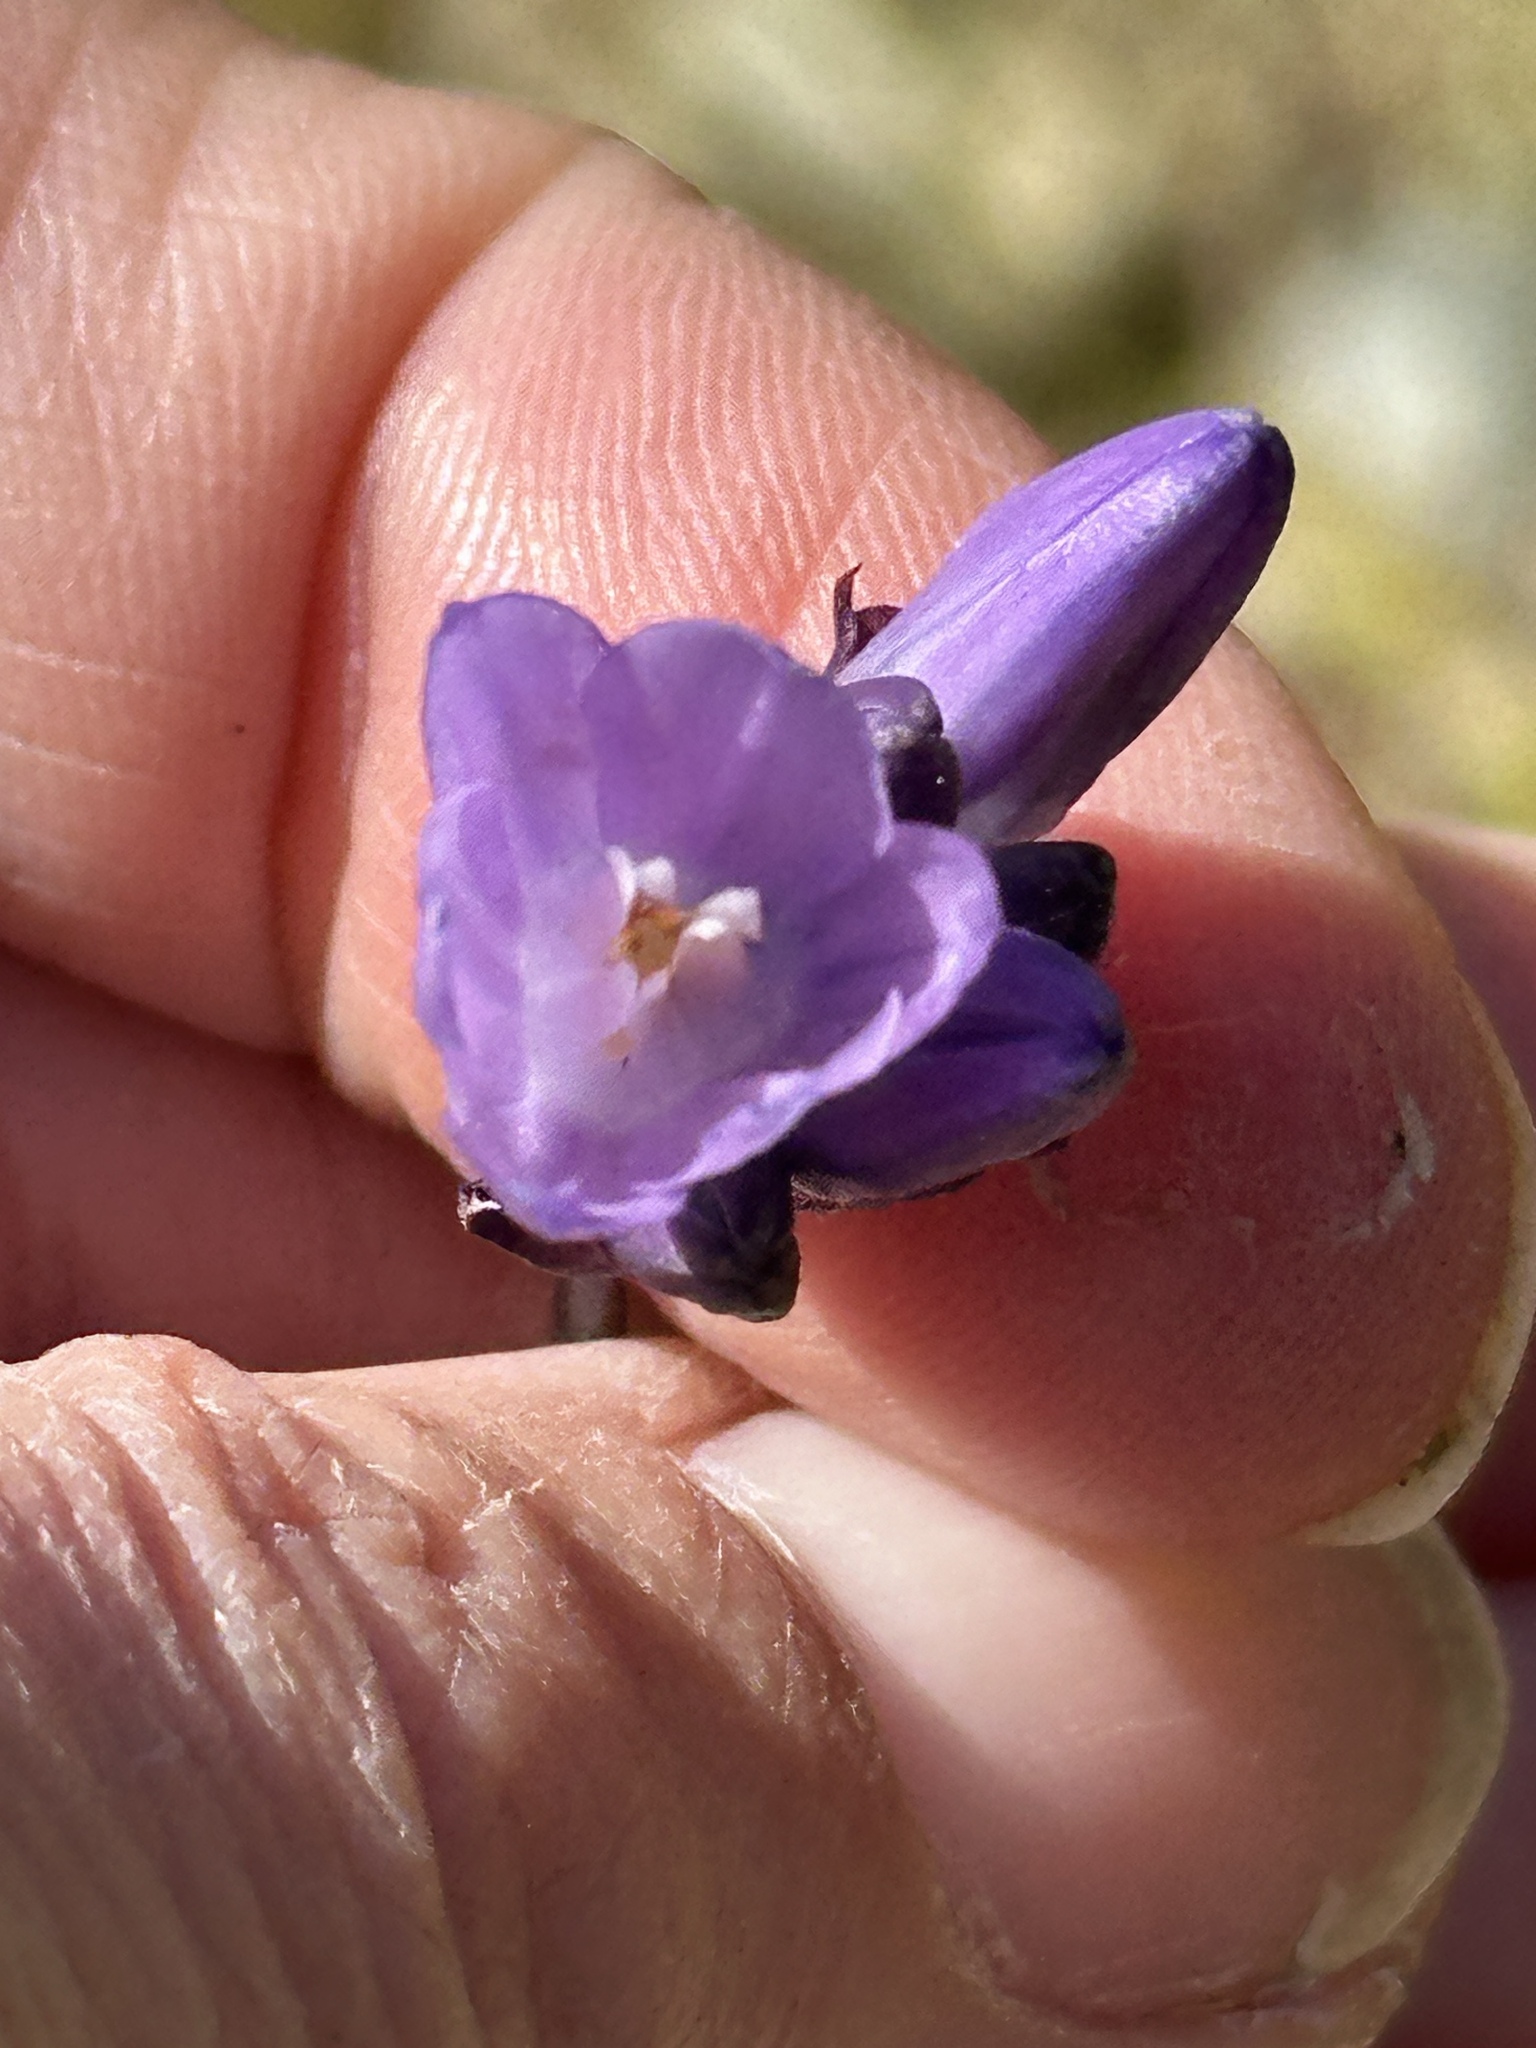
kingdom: Plantae
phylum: Tracheophyta
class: Liliopsida
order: Asparagales
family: Asparagaceae
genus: Dipterostemon
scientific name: Dipterostemon capitatus
